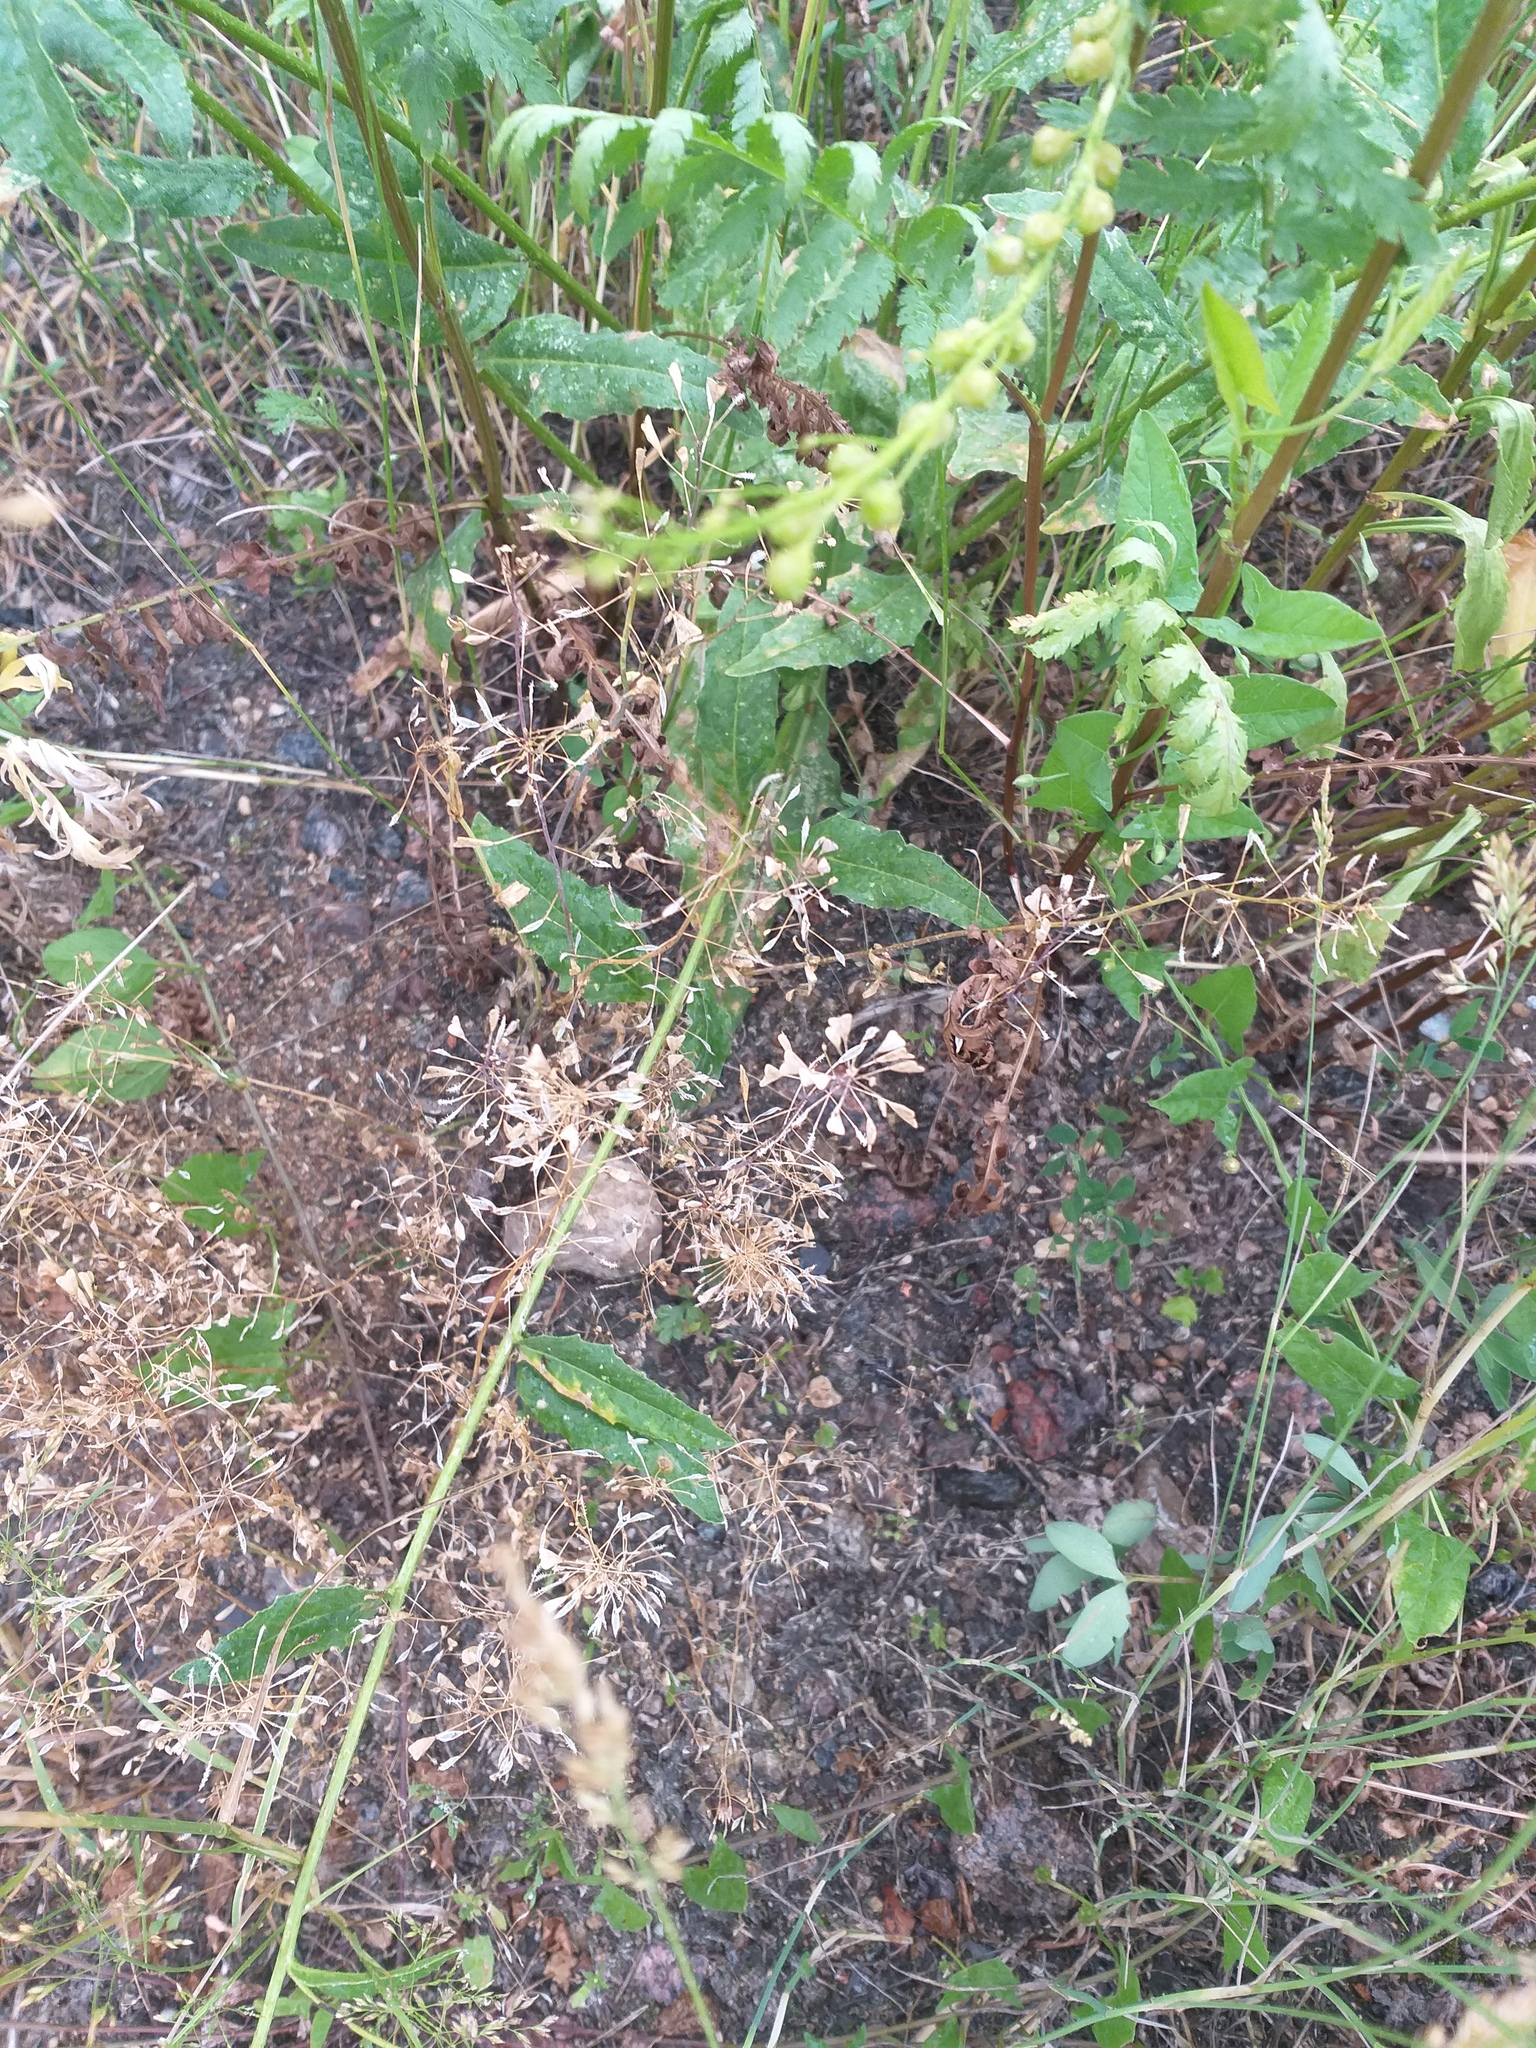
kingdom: Plantae
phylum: Tracheophyta
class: Magnoliopsida
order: Brassicales
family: Brassicaceae
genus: Capsella
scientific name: Capsella bursa-pastoris
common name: Shepherd's purse
